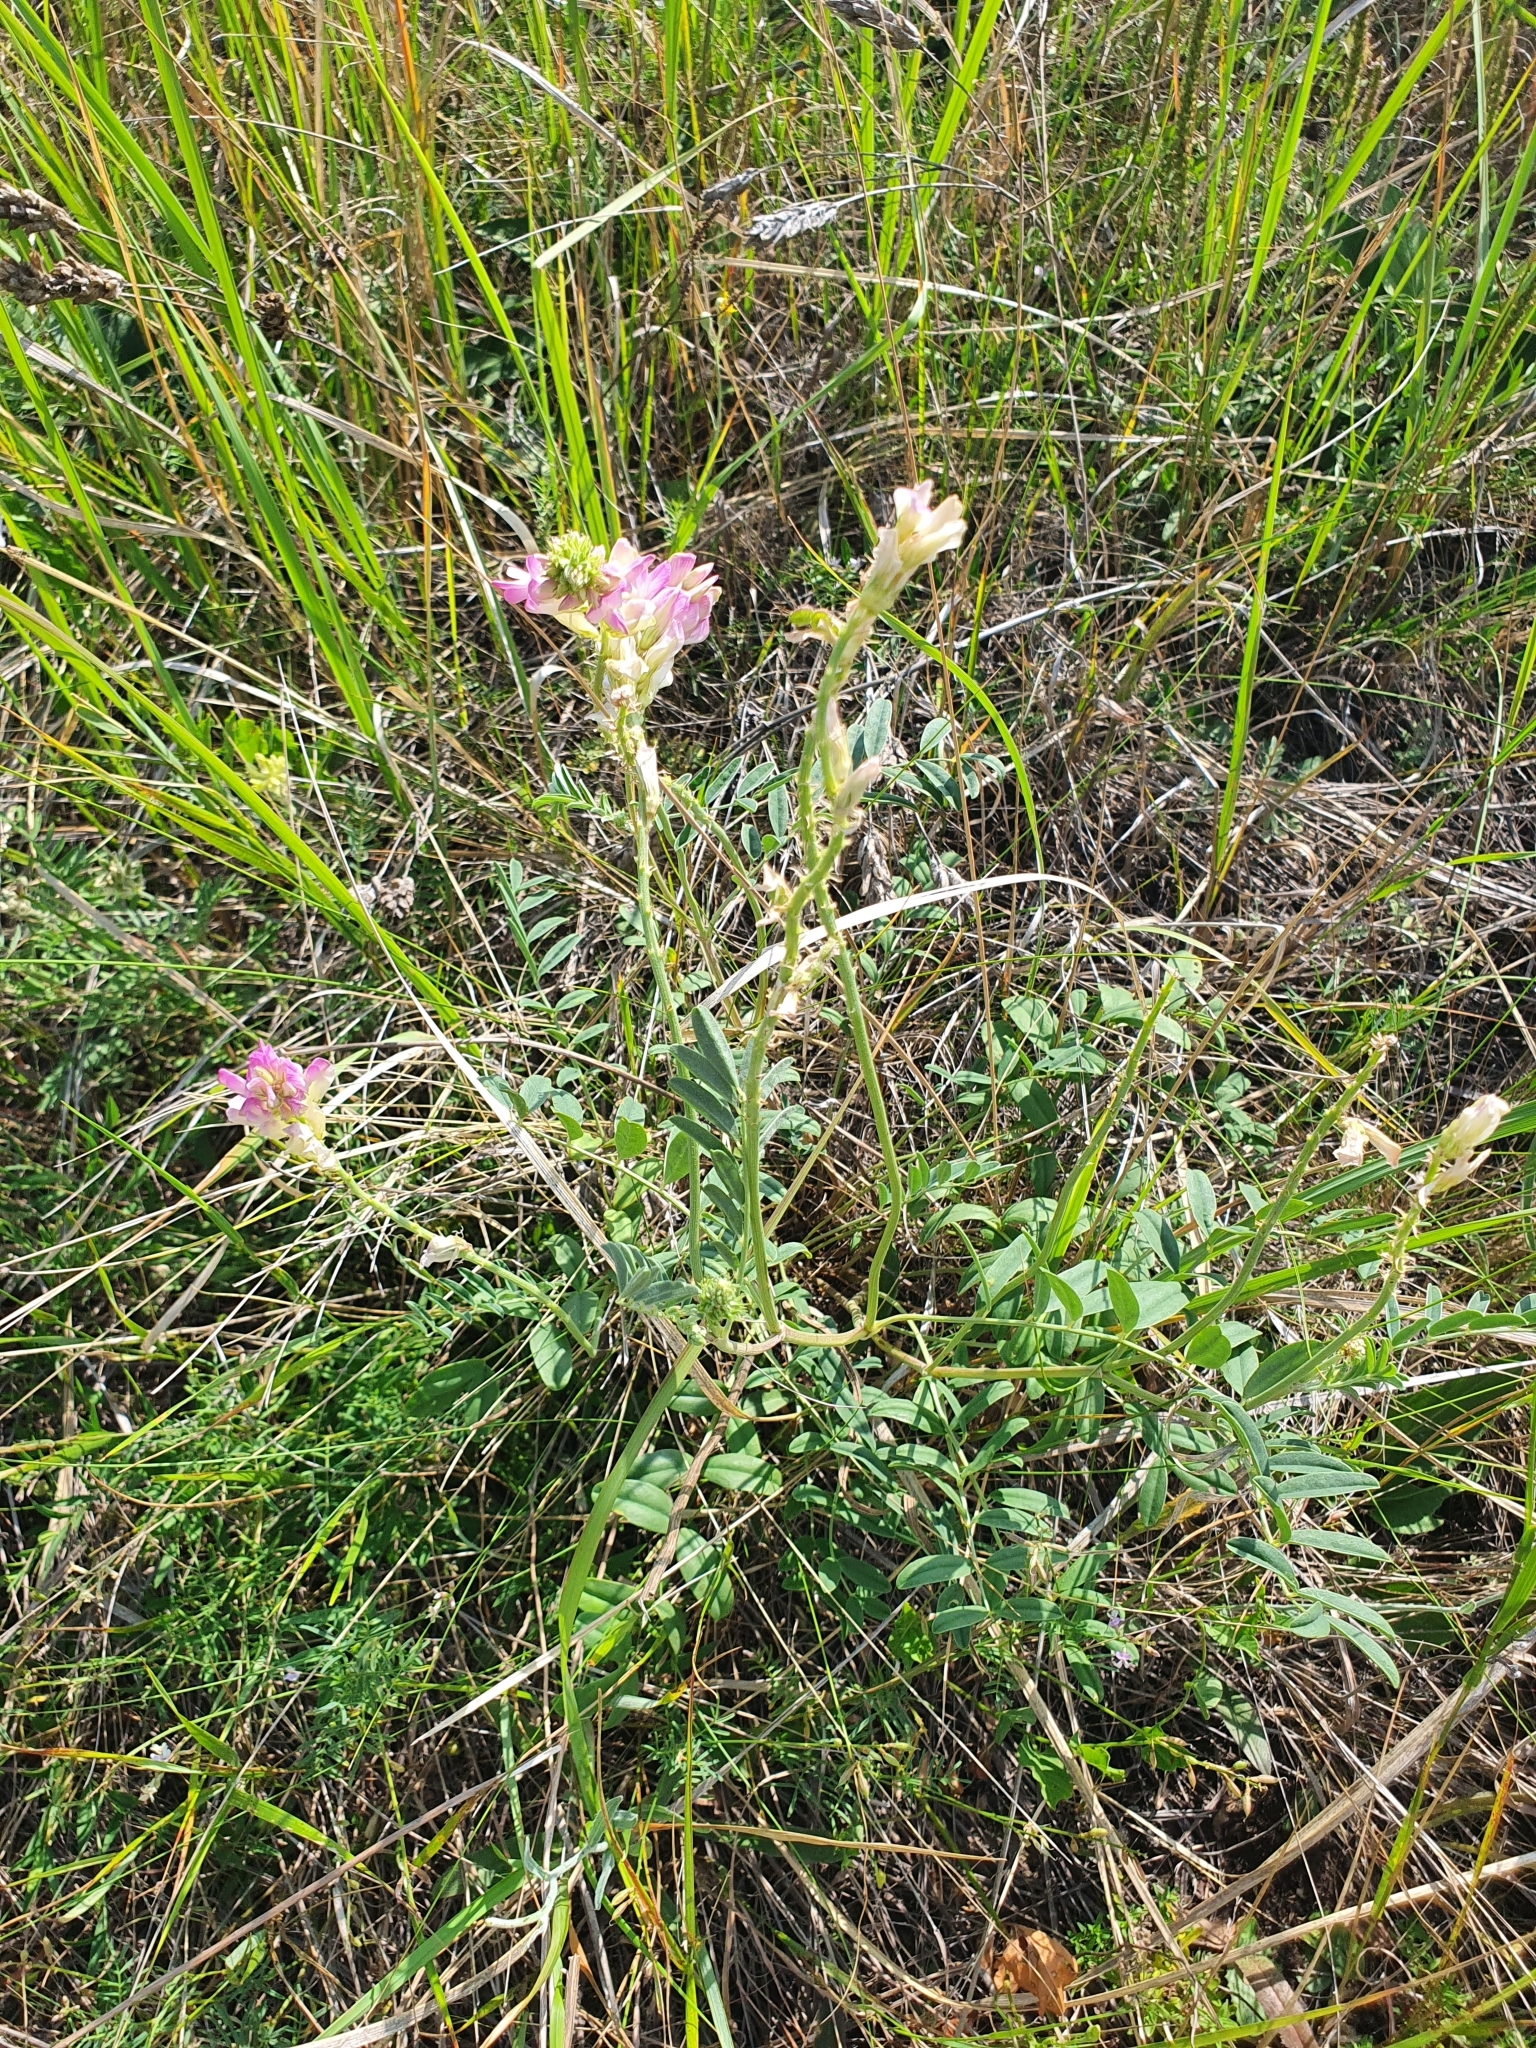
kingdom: Plantae
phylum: Tracheophyta
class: Magnoliopsida
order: Fabales
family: Fabaceae
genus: Hedysarum
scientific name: Hedysarum gmelinii
